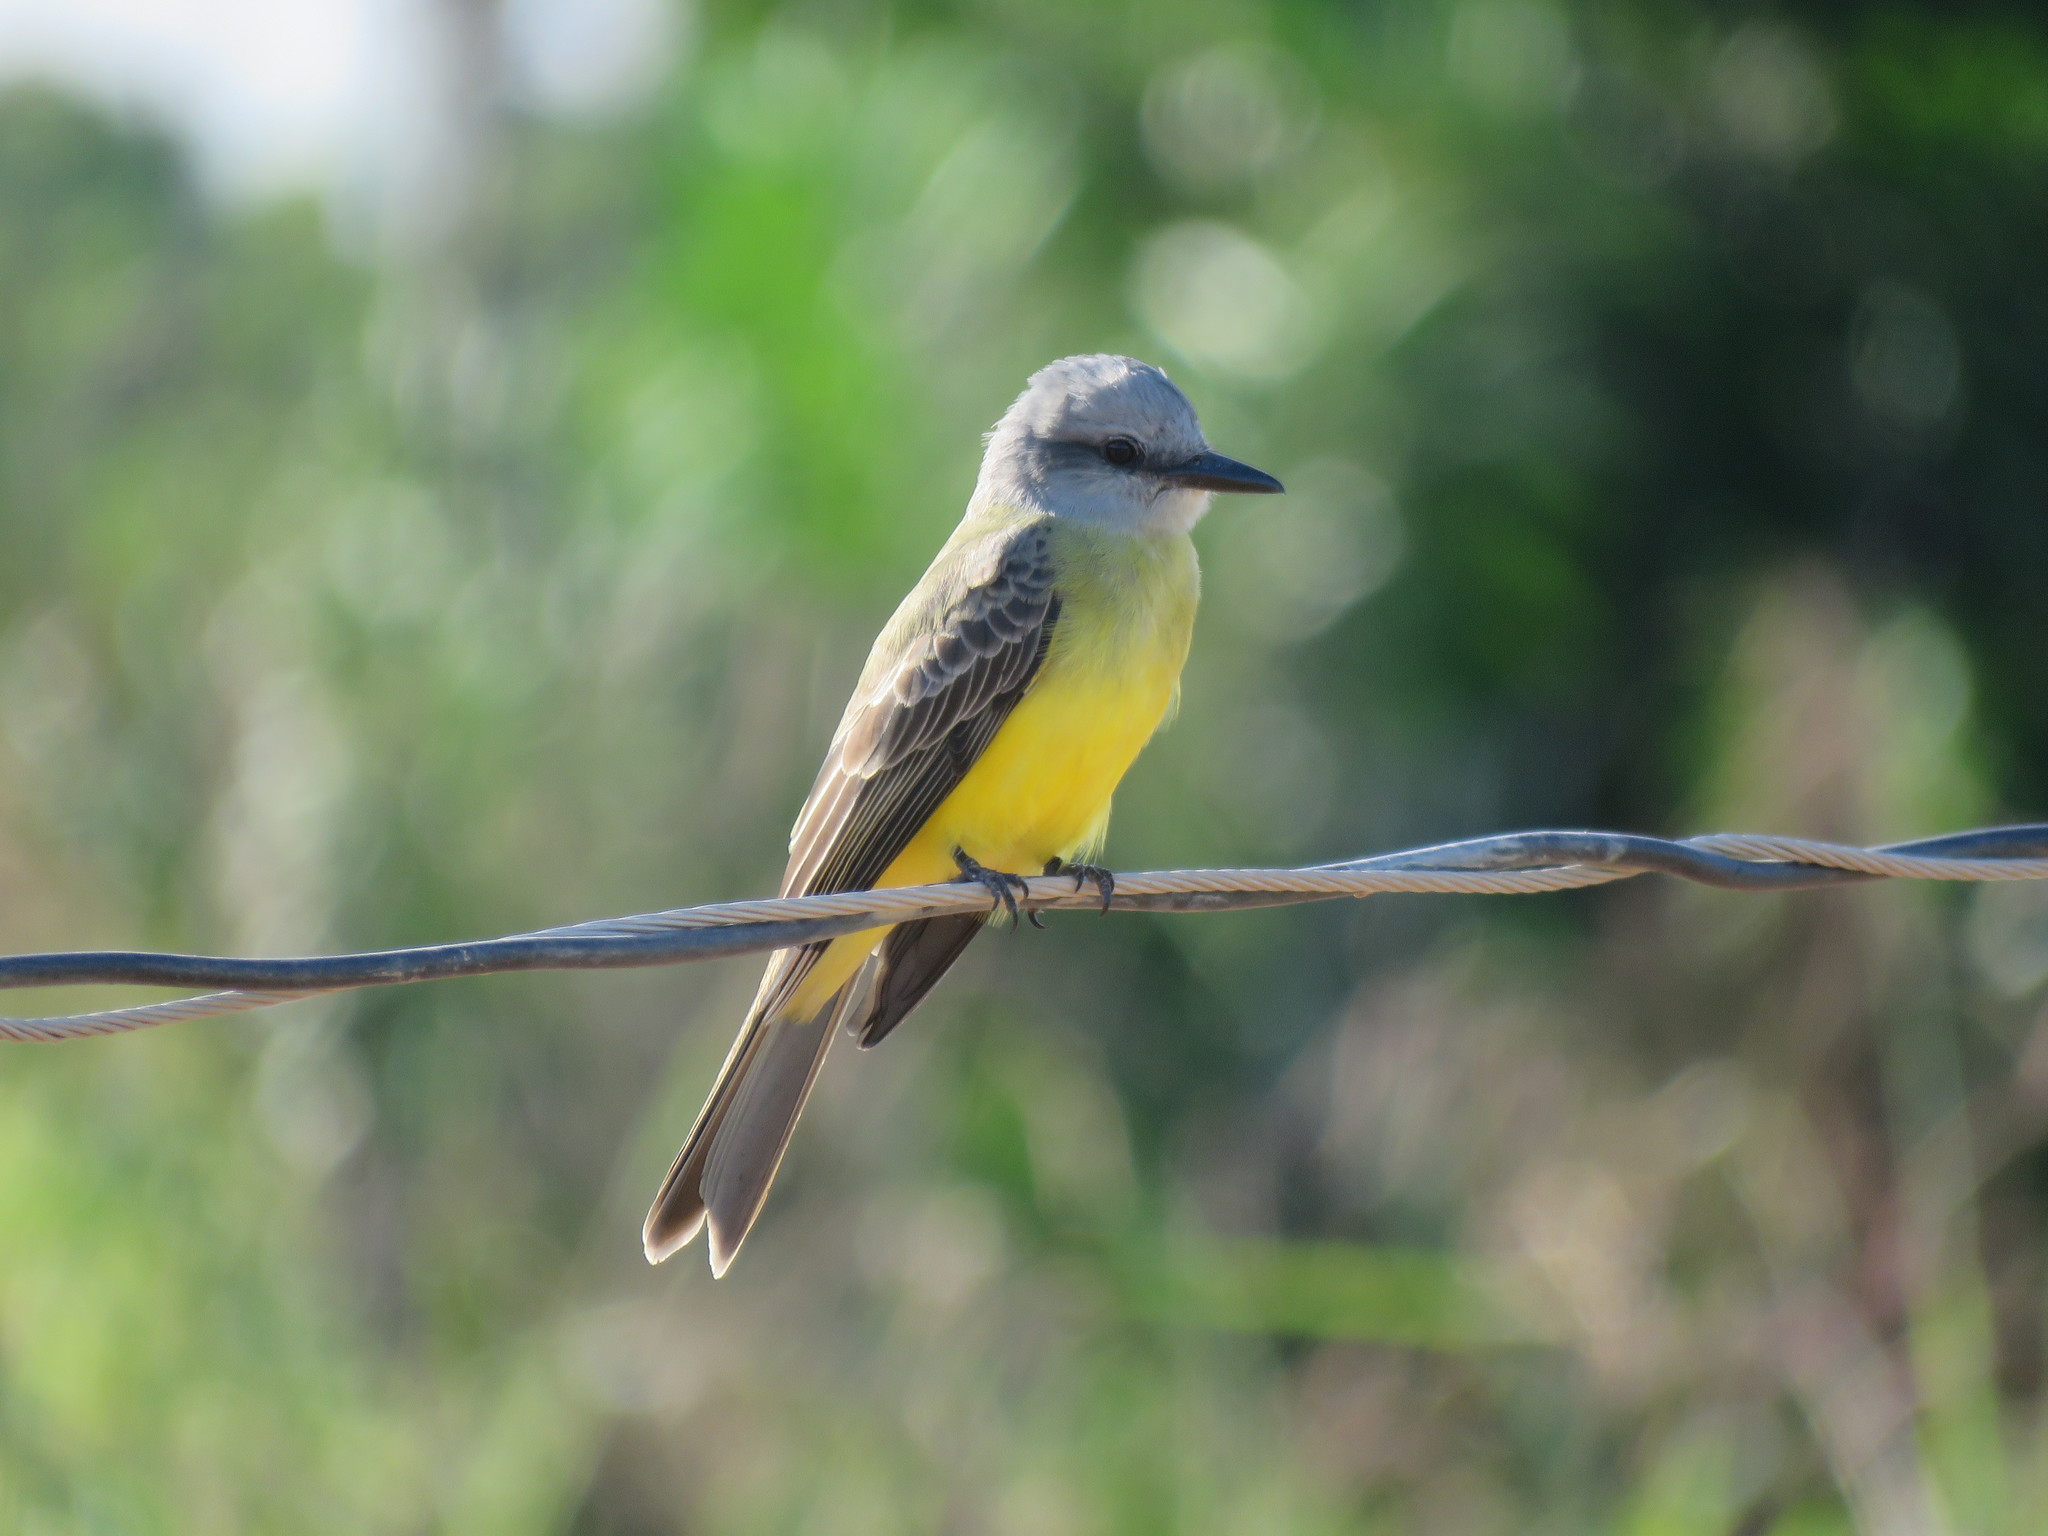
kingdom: Animalia
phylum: Chordata
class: Aves
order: Passeriformes
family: Tyrannidae
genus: Tyrannus
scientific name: Tyrannus melancholicus
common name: Tropical kingbird
